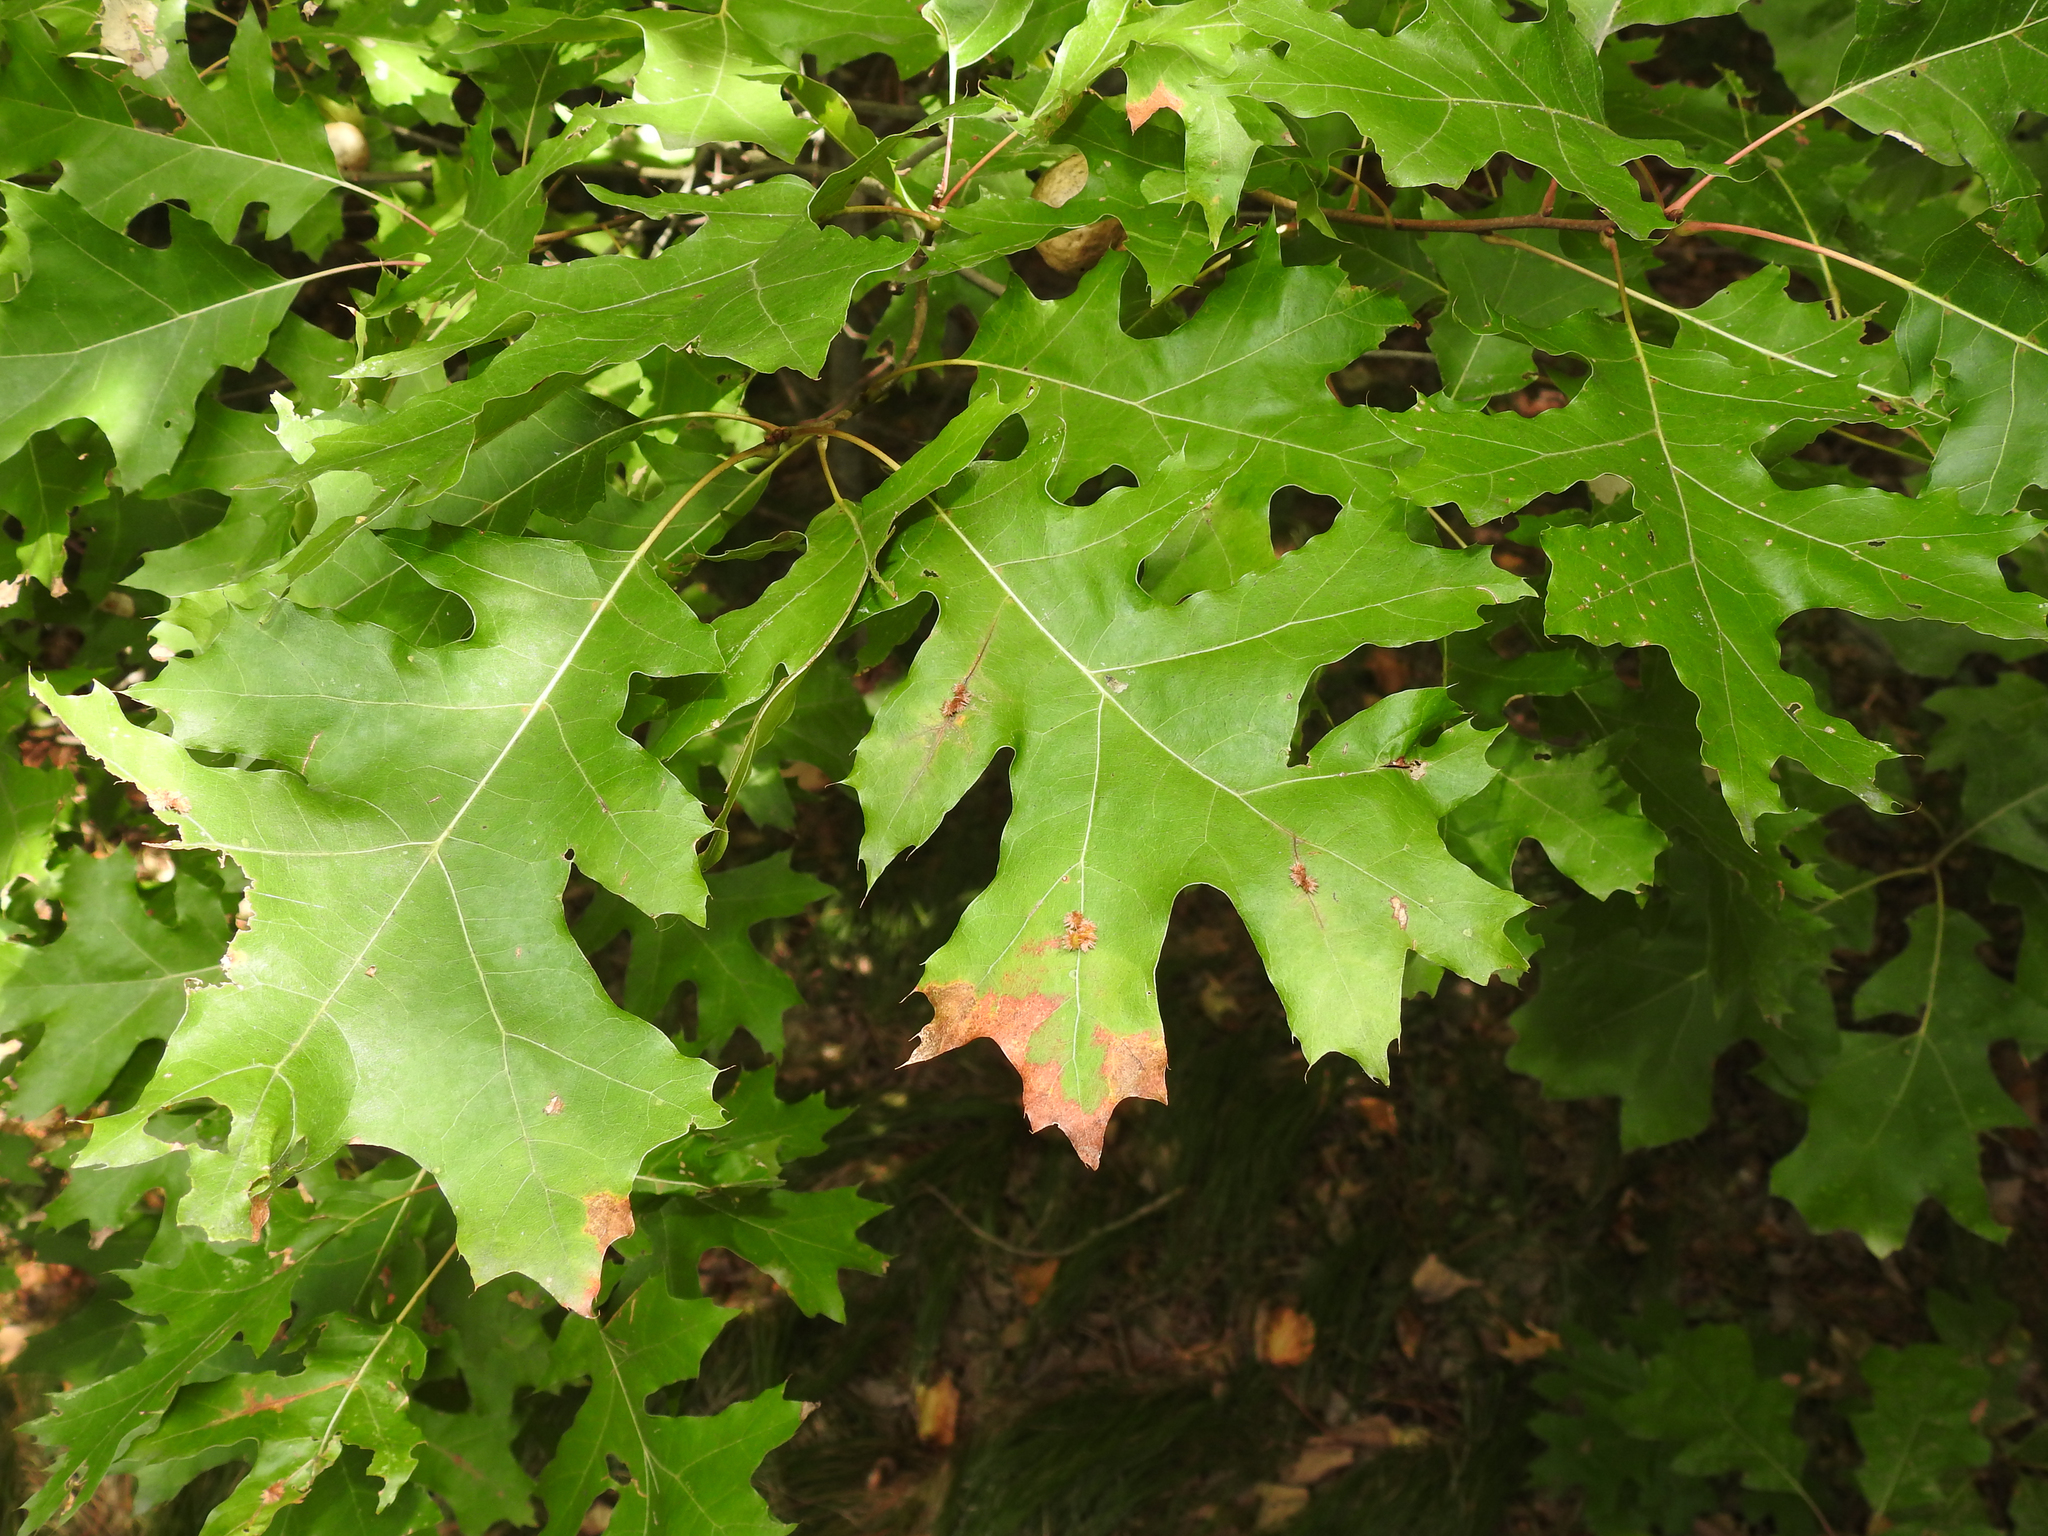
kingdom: Animalia
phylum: Arthropoda
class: Insecta
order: Hymenoptera
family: Cynipidae
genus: Callirhytis
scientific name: Callirhytis
